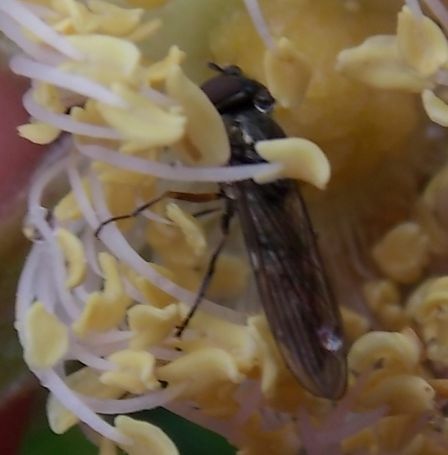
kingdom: Animalia
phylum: Arthropoda
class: Insecta
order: Diptera
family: Syrphidae
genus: Platycheirus
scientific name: Platycheirus
